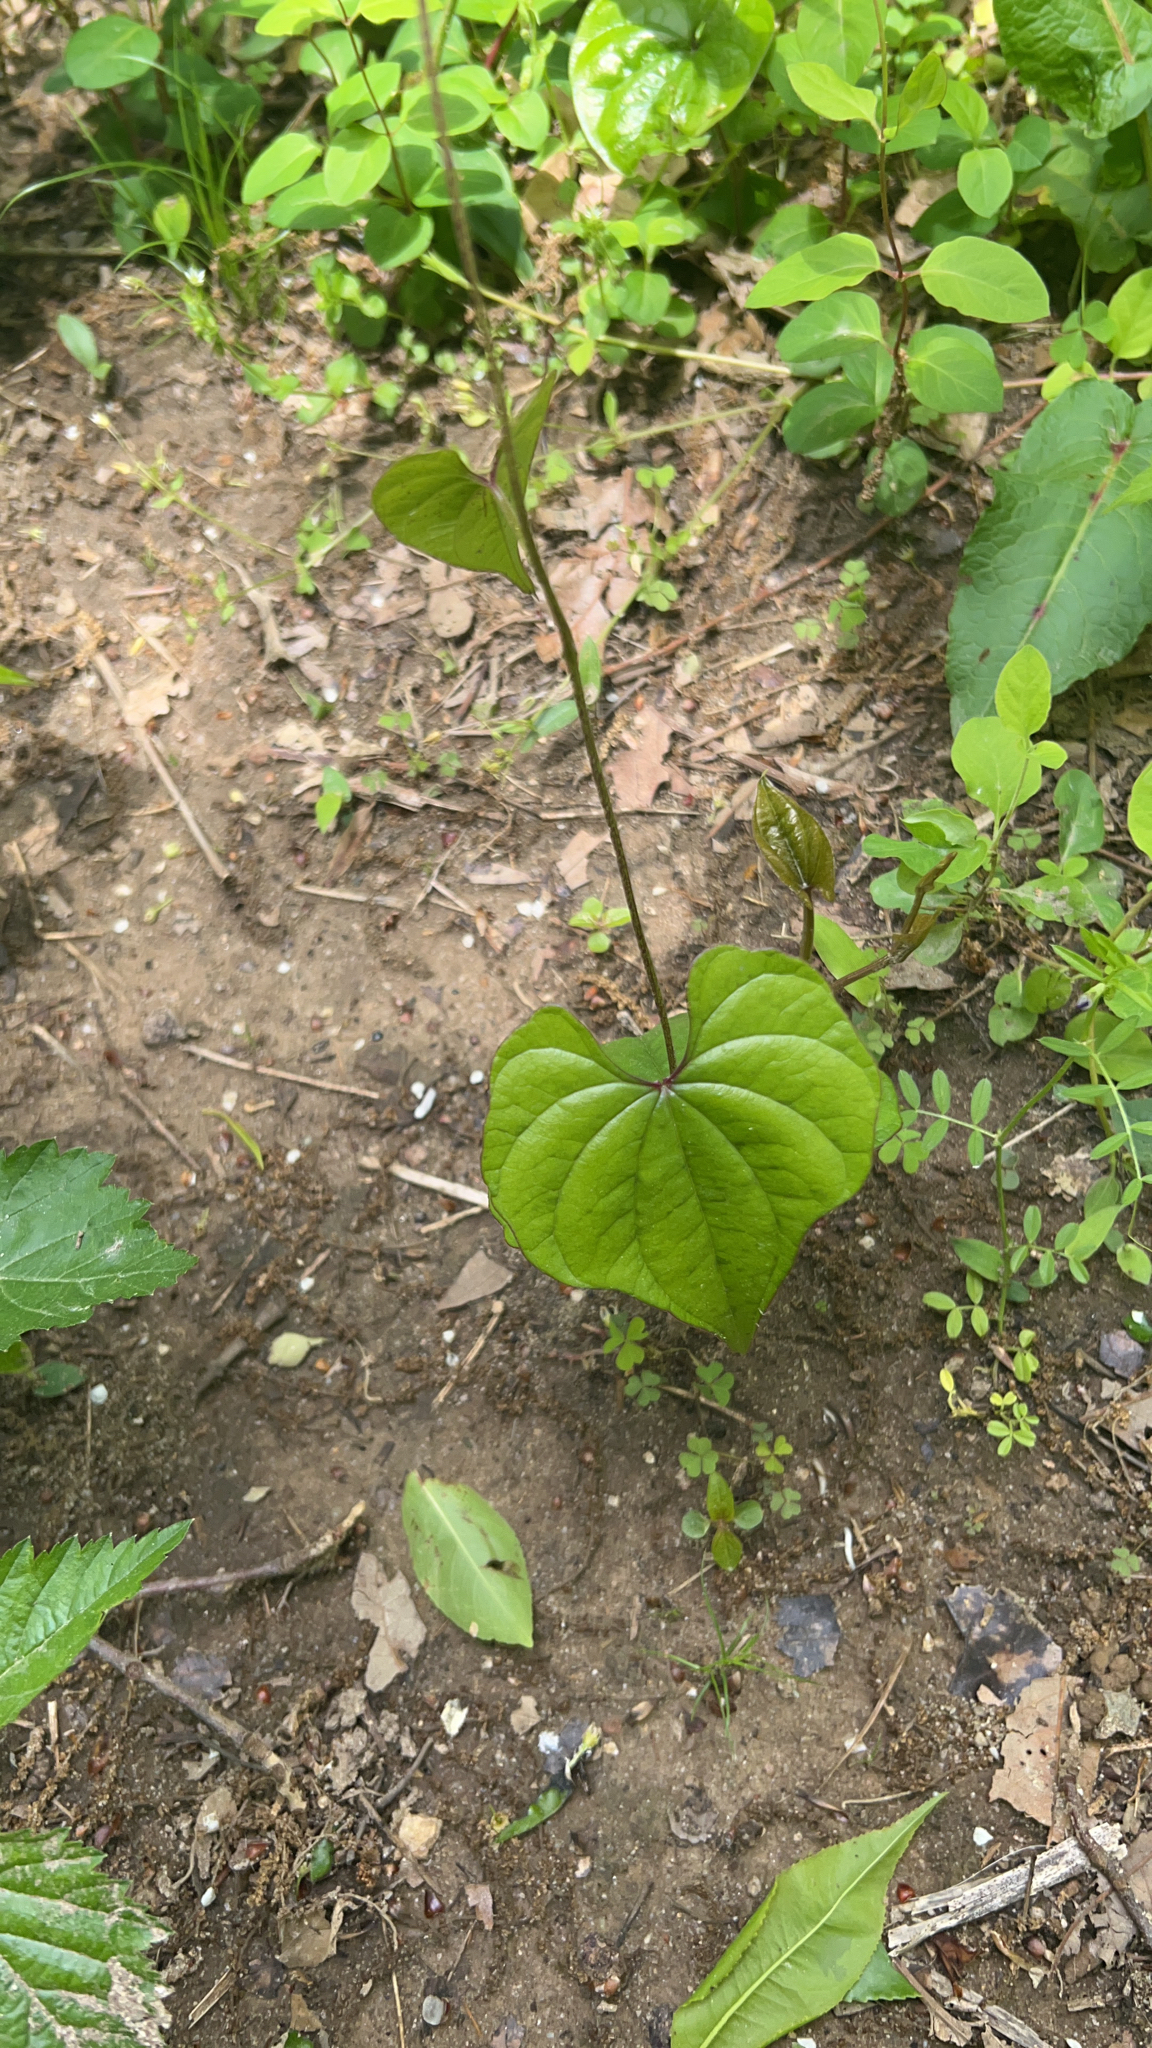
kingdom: Plantae
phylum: Tracheophyta
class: Liliopsida
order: Dioscoreales
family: Dioscoreaceae
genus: Dioscorea
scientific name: Dioscorea polystachya
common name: Chinese yam
